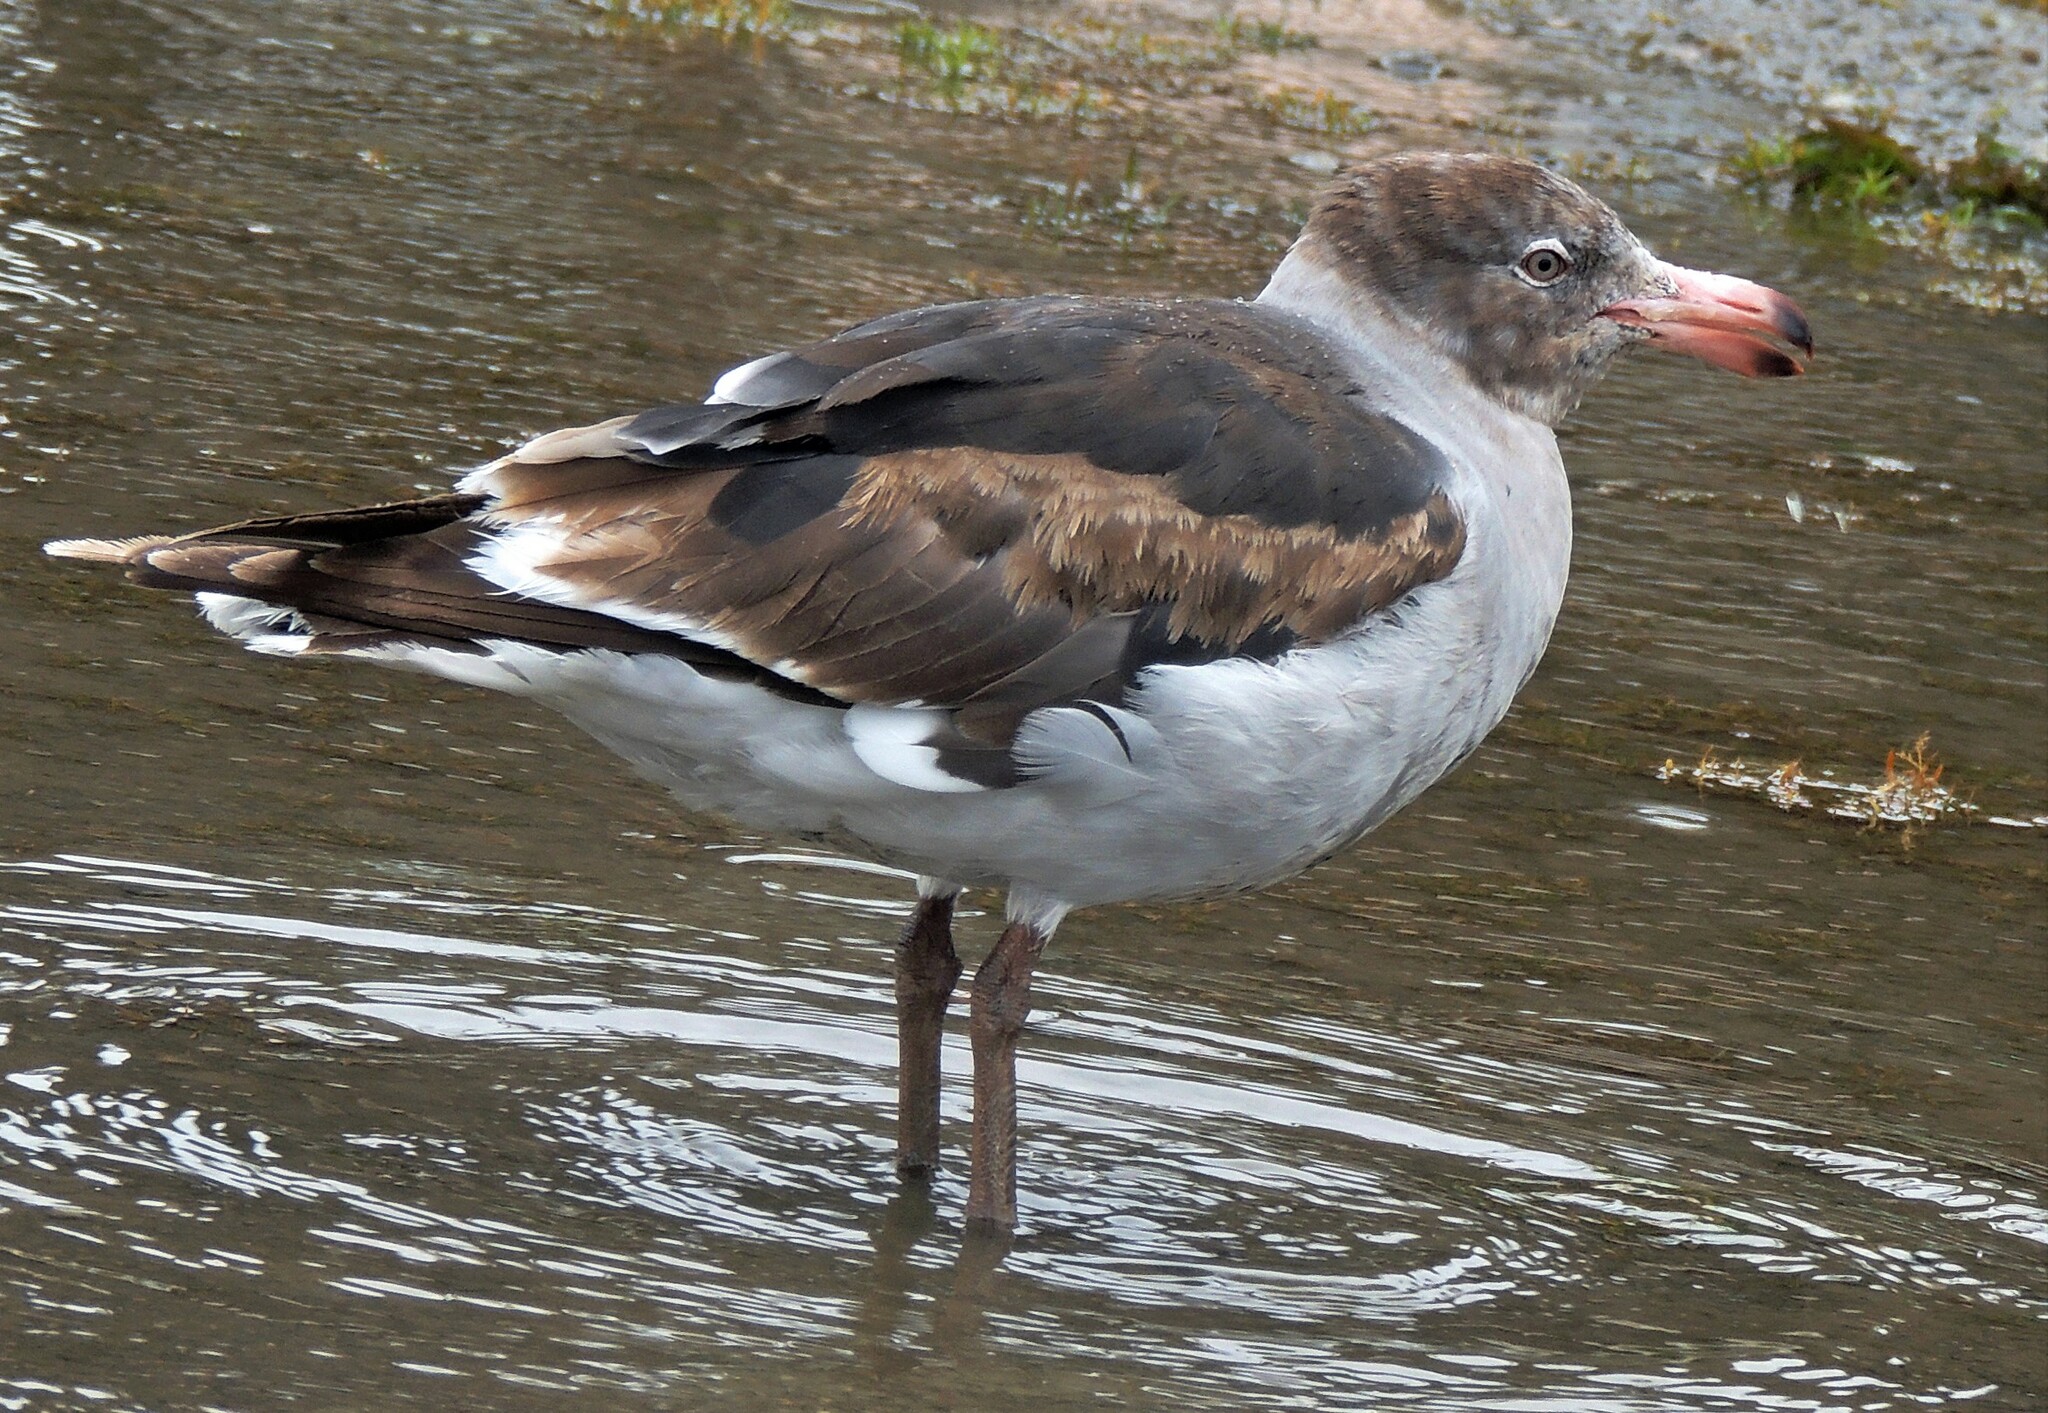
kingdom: Animalia
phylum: Chordata
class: Aves
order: Charadriiformes
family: Laridae
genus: Leucophaeus
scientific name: Leucophaeus scoresbii
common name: Dolphin gull
